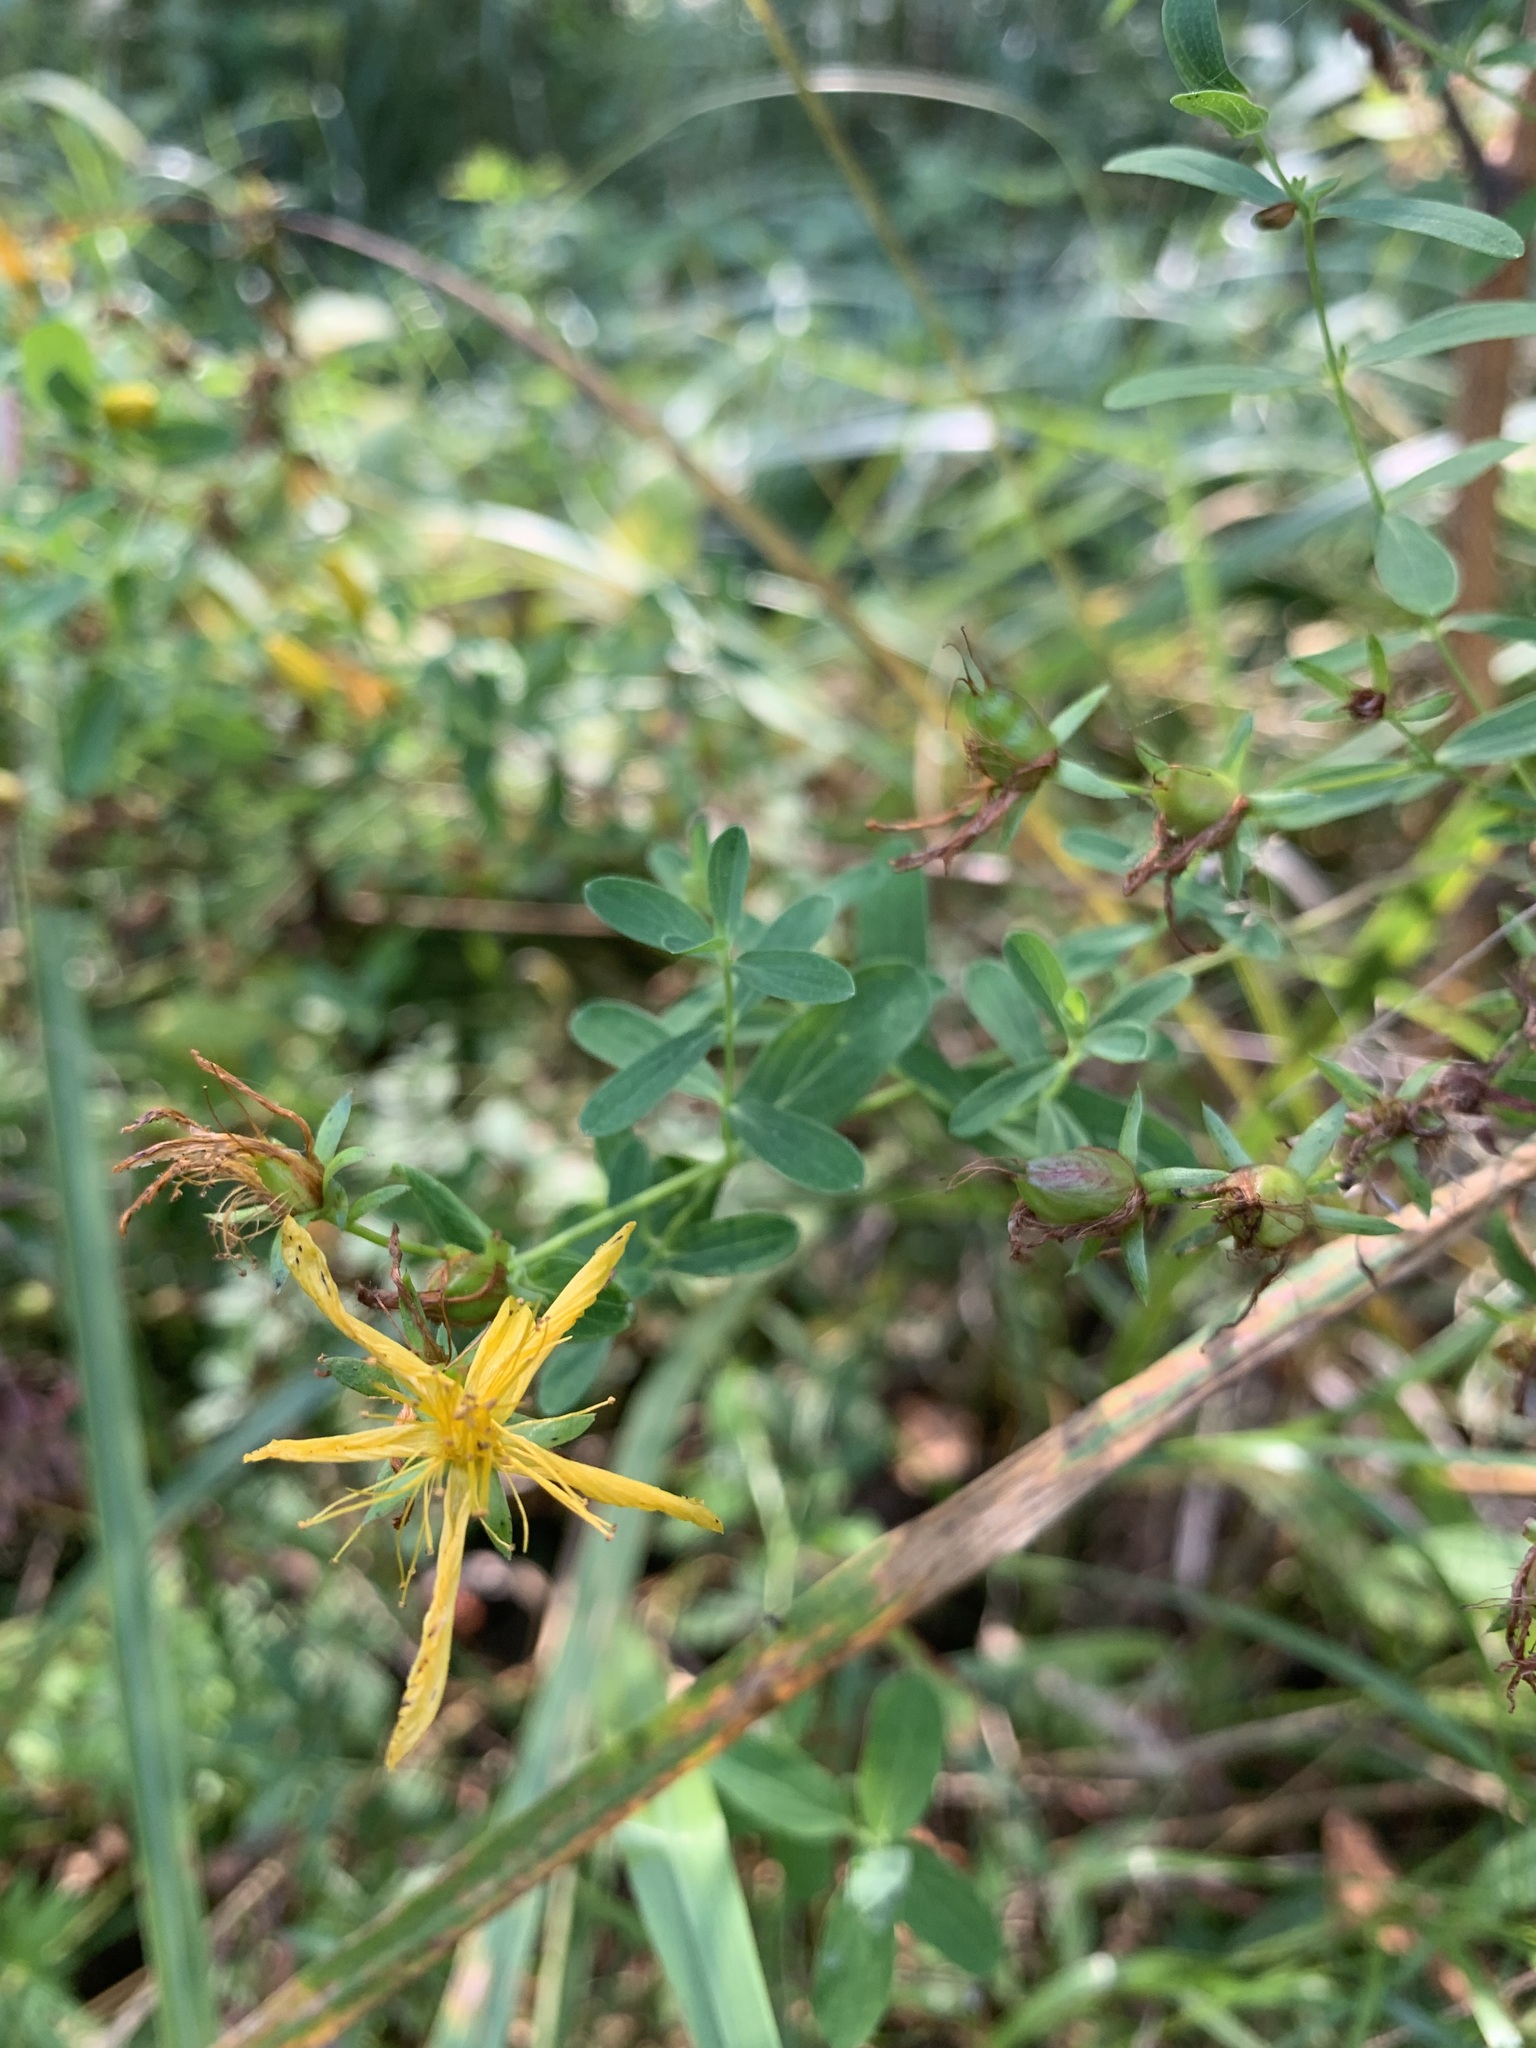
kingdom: Plantae
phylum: Tracheophyta
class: Magnoliopsida
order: Malpighiales
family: Hypericaceae
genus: Hypericum
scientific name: Hypericum perforatum
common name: Common st. johnswort
